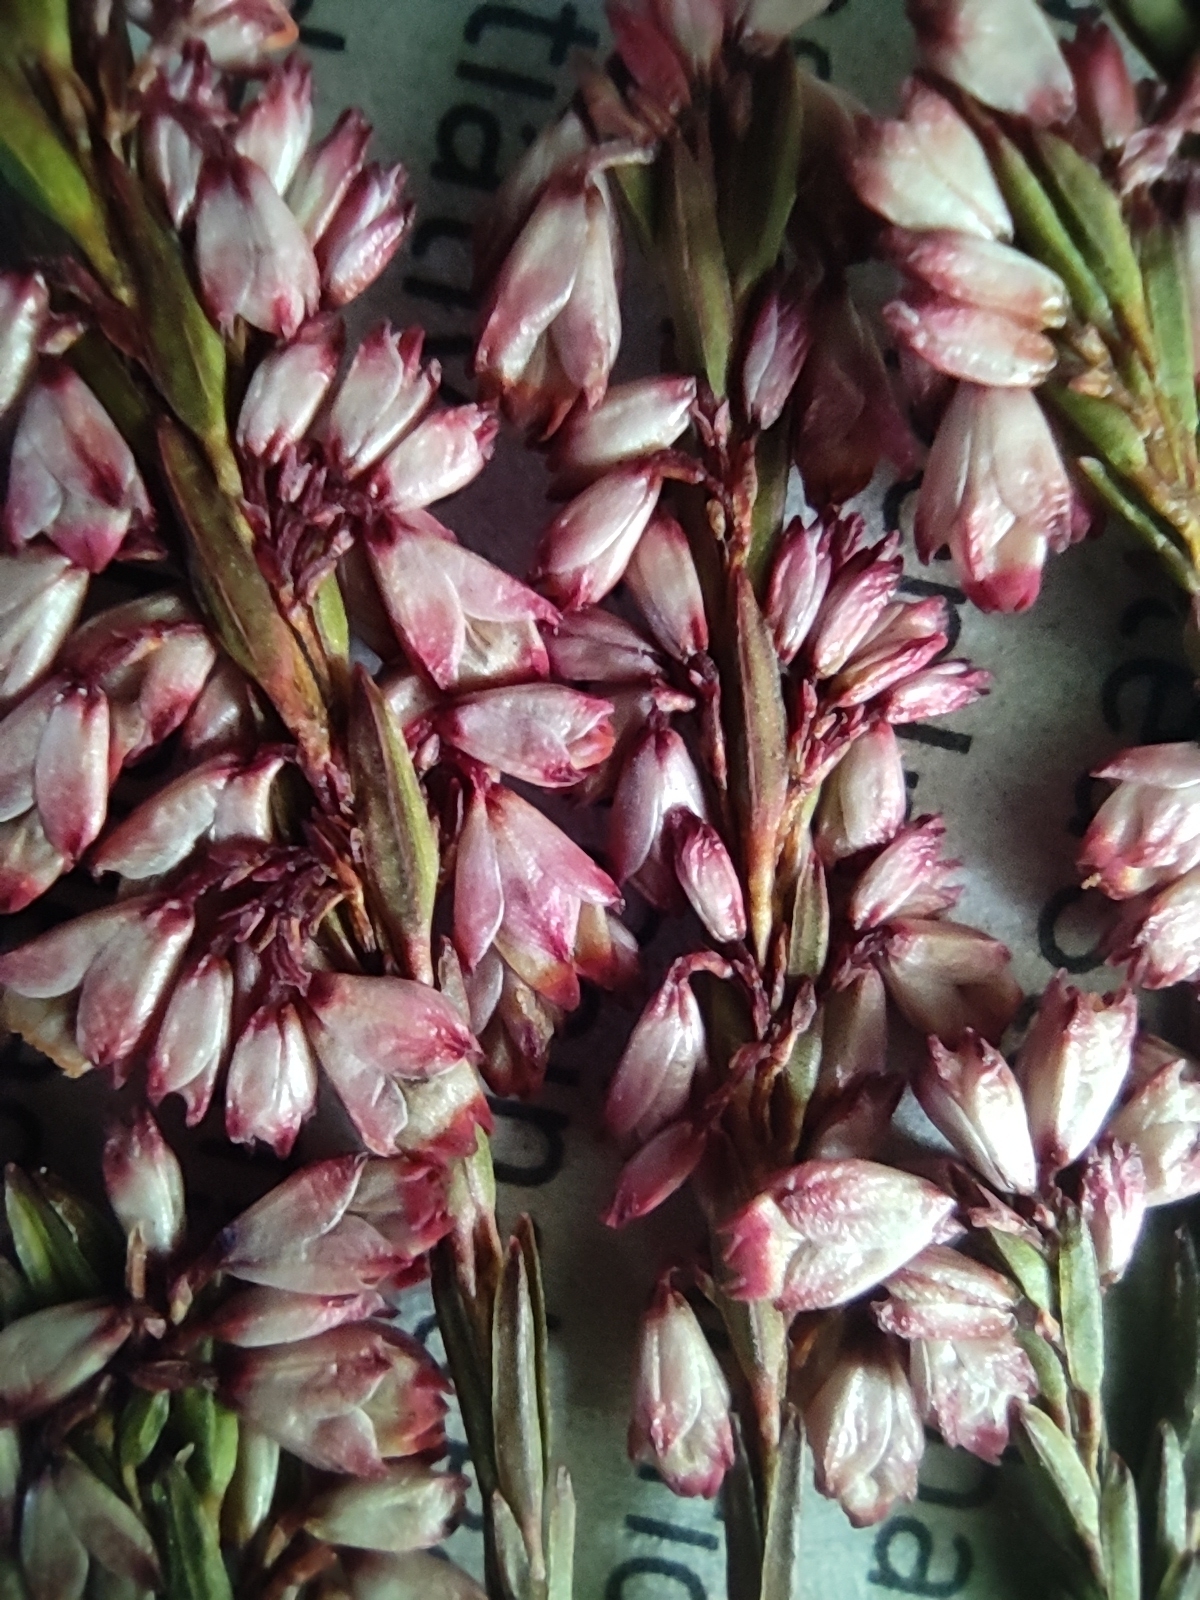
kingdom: Plantae
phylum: Tracheophyta
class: Magnoliopsida
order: Ericales
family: Ericaceae
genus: Erica
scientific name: Erica articularis
